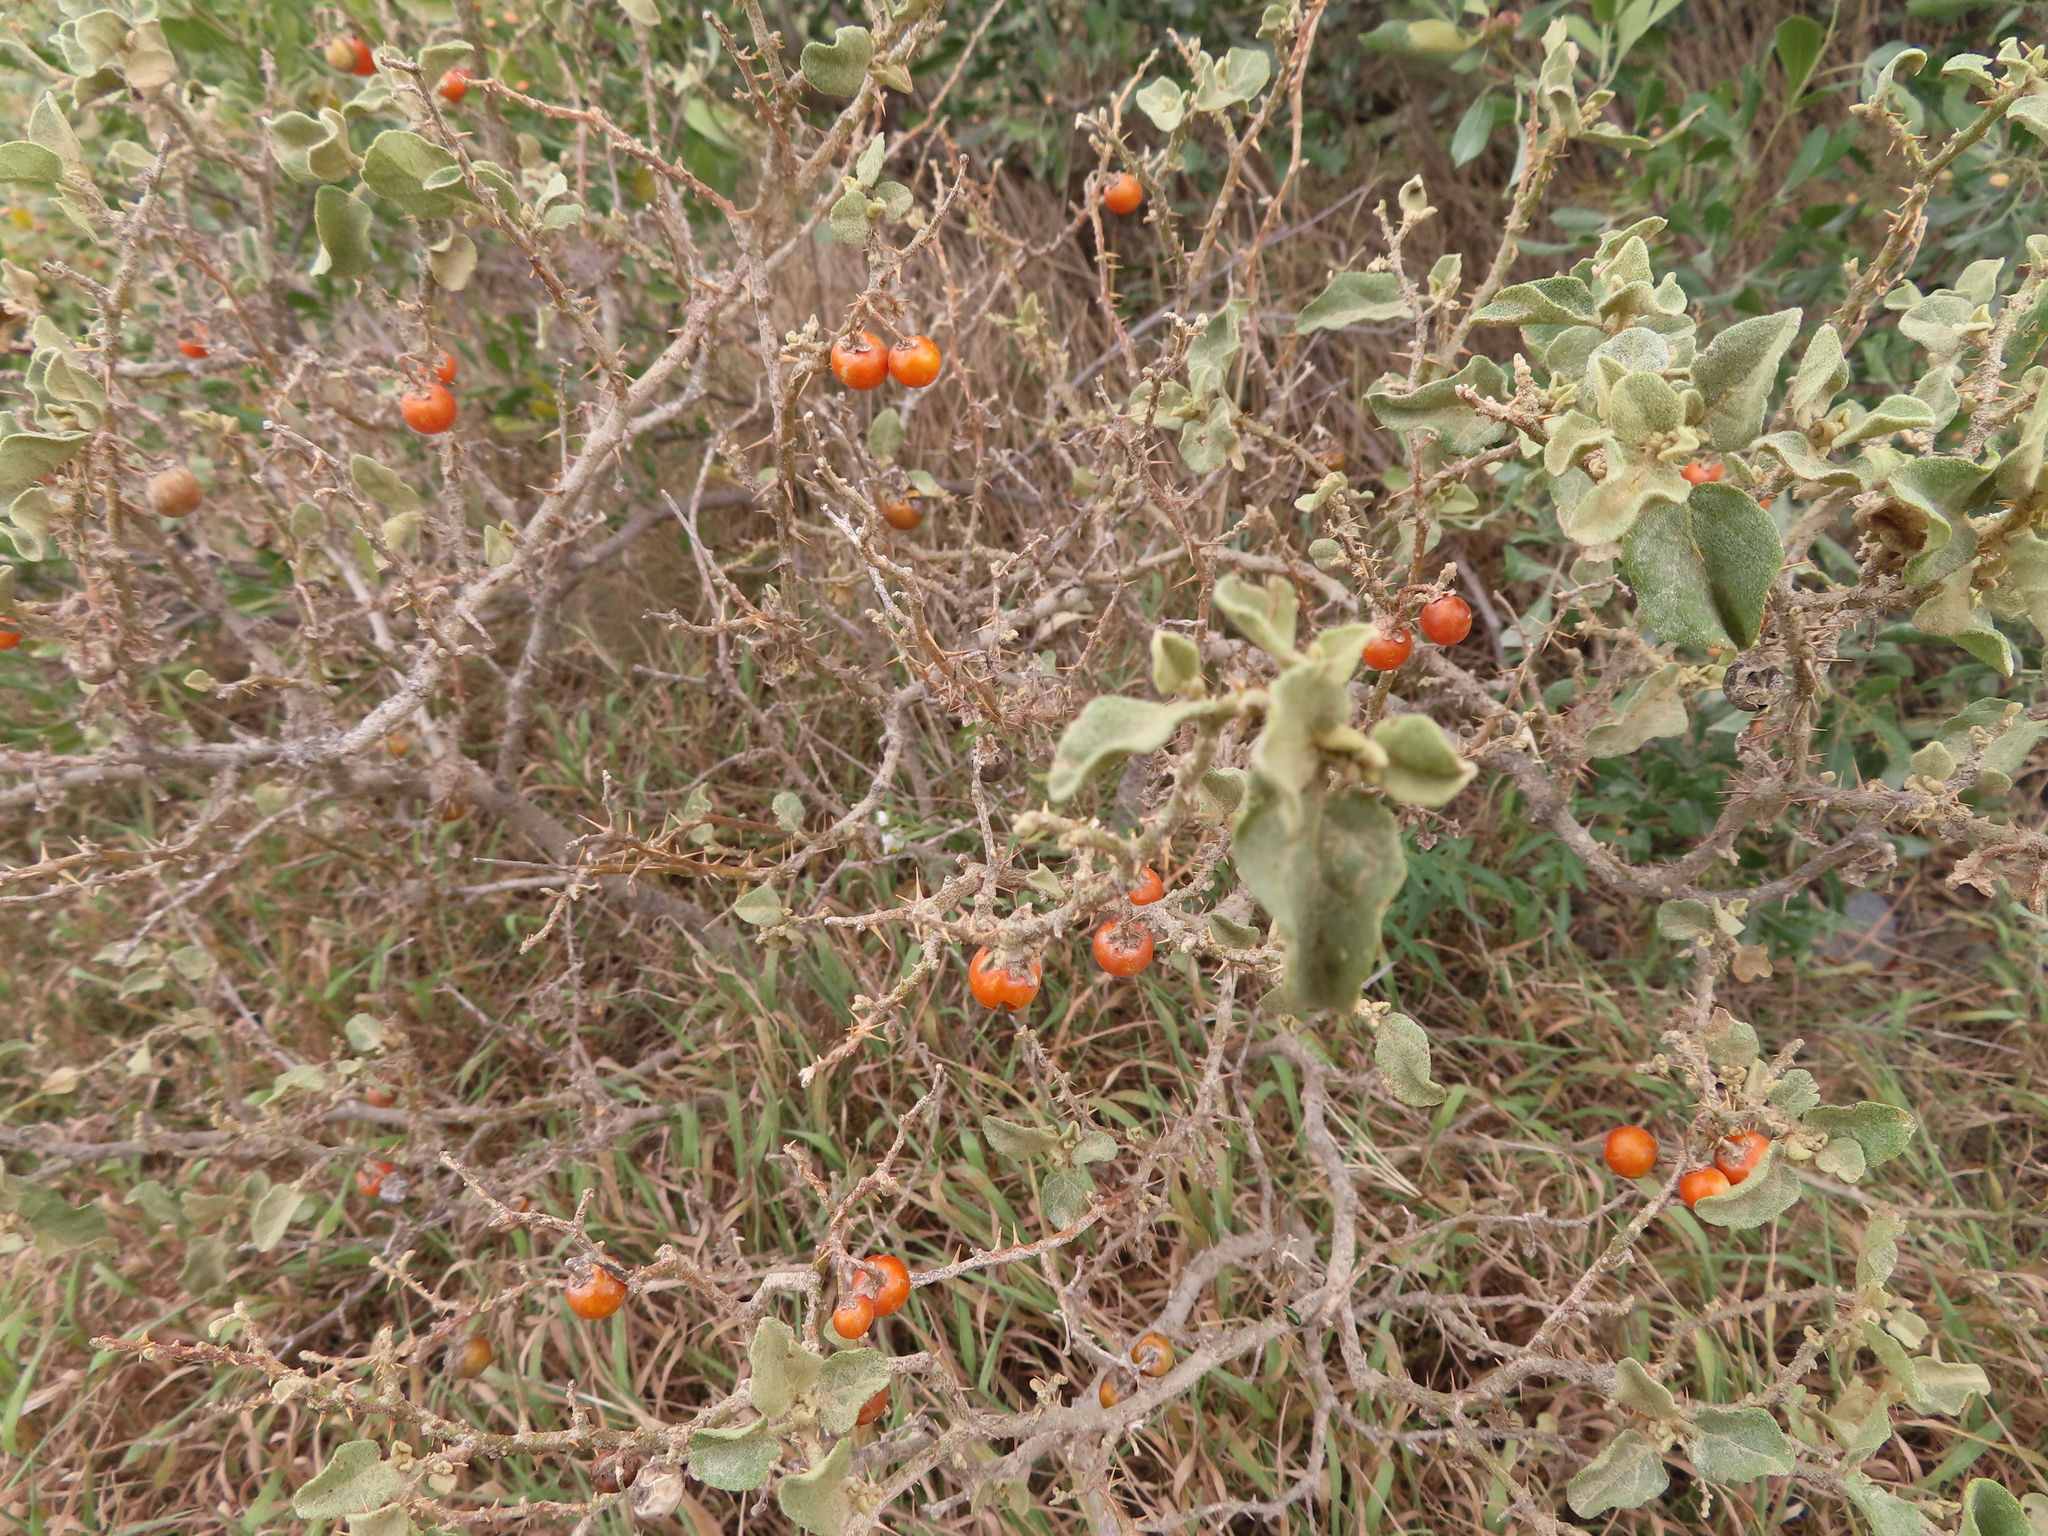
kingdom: Plantae
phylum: Tracheophyta
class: Magnoliopsida
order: Solanales
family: Solanaceae
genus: Solanum
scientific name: Solanum tomentosum
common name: Wild aubergine
